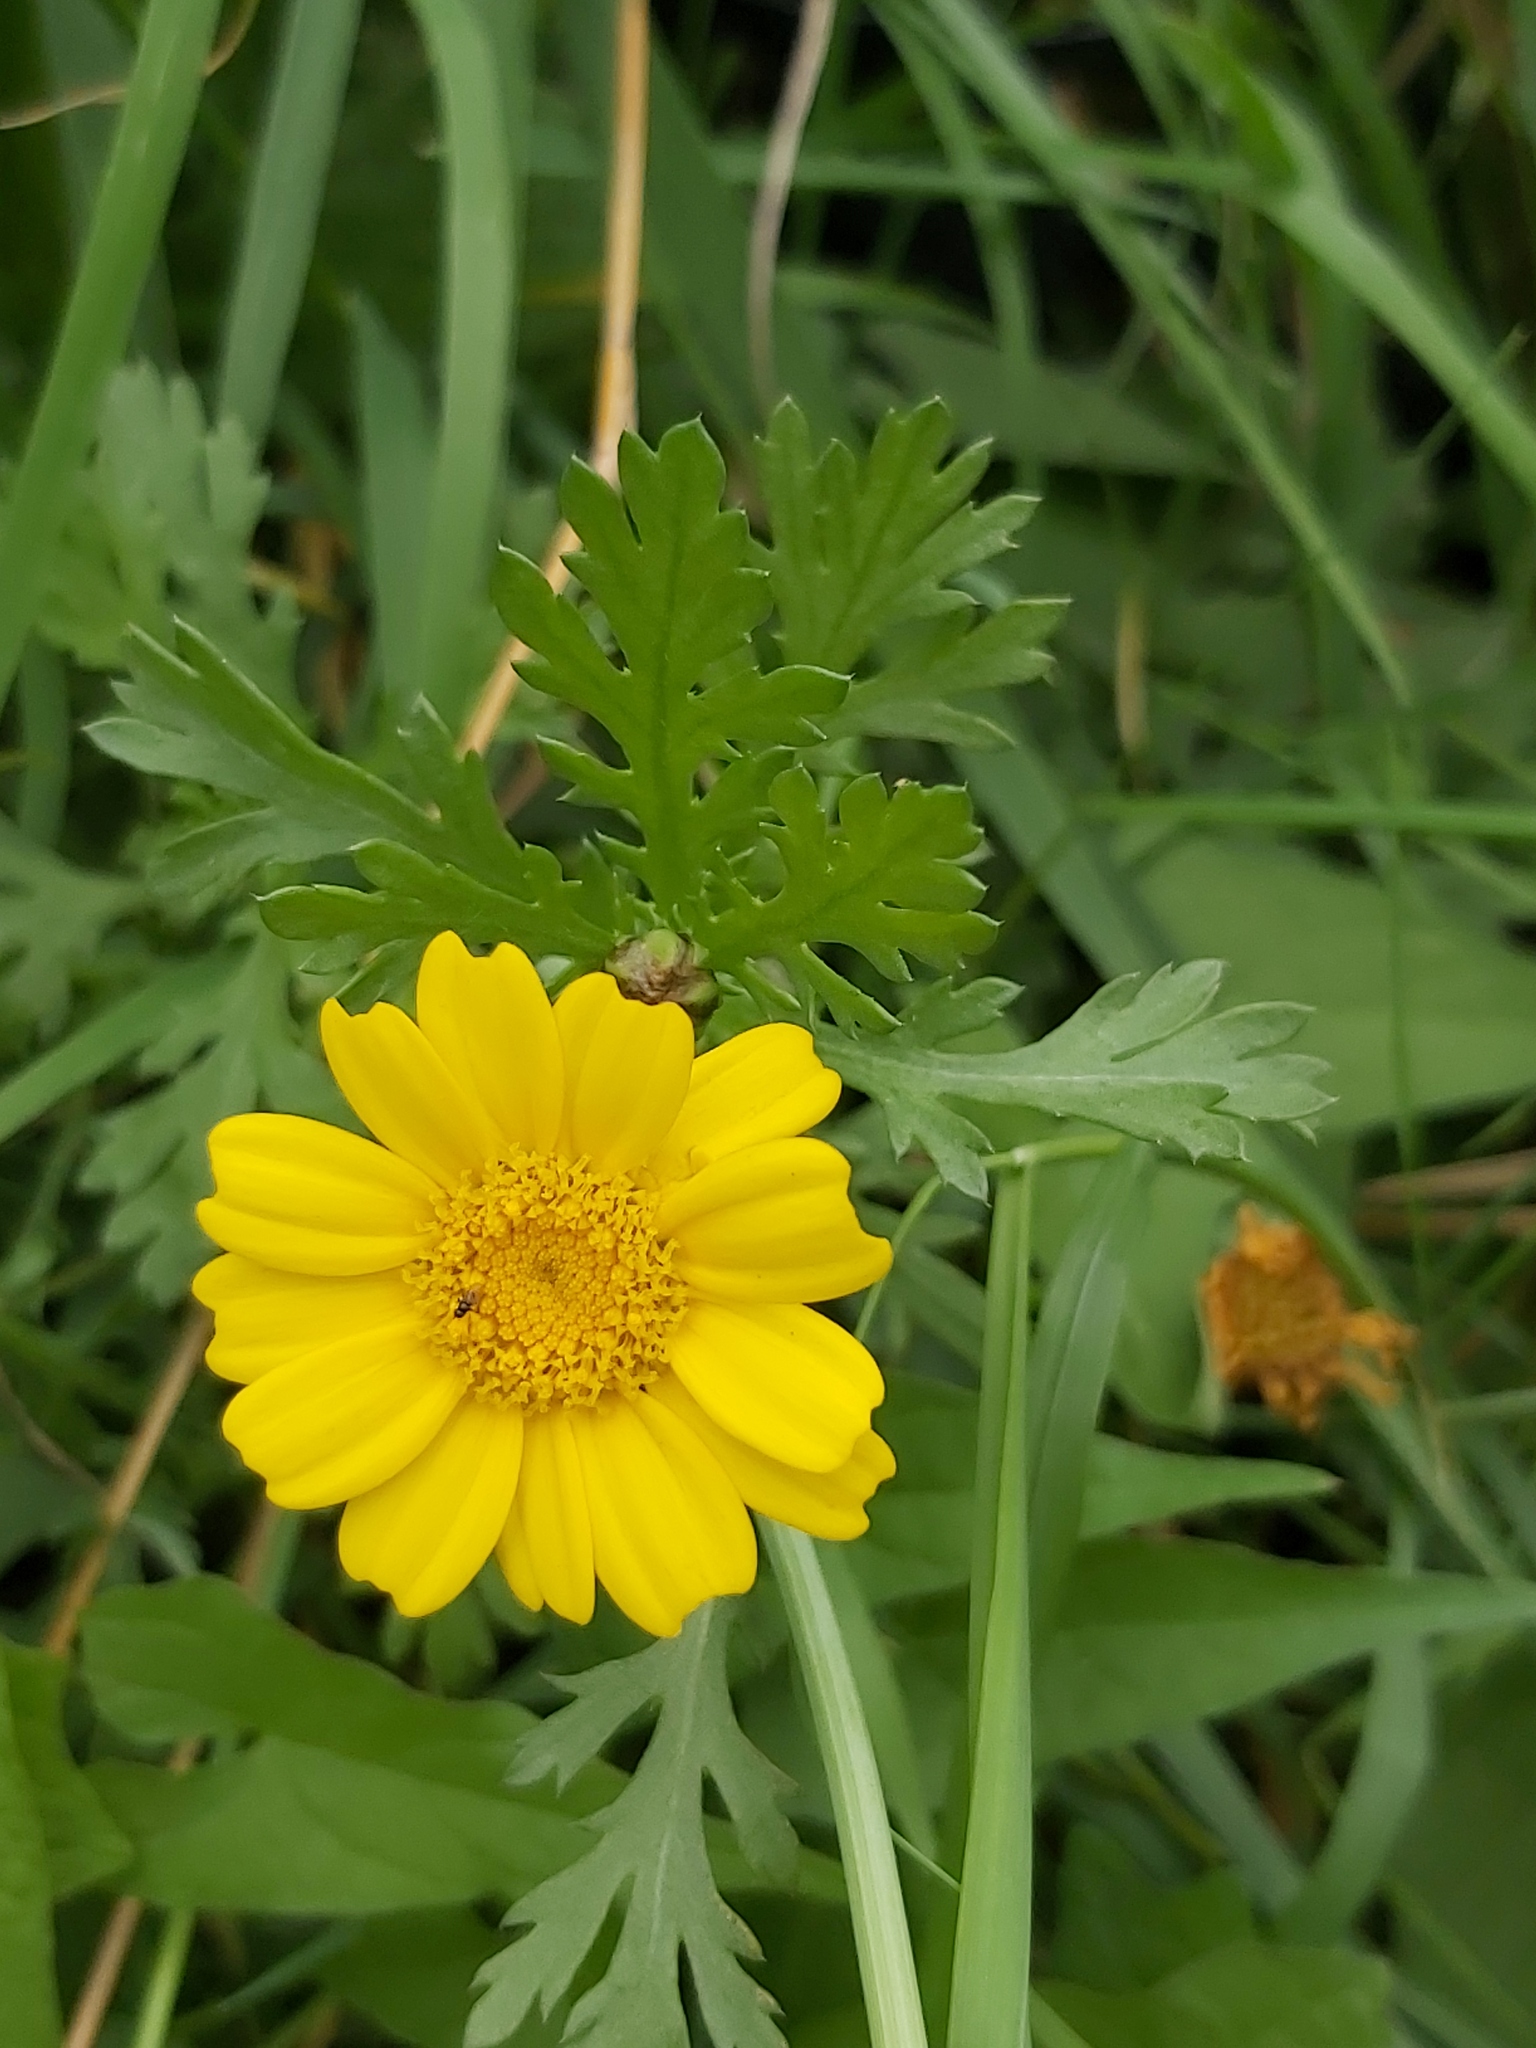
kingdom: Plantae
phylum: Tracheophyta
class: Magnoliopsida
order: Asterales
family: Asteraceae
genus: Glebionis
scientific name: Glebionis segetum
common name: Corndaisy
